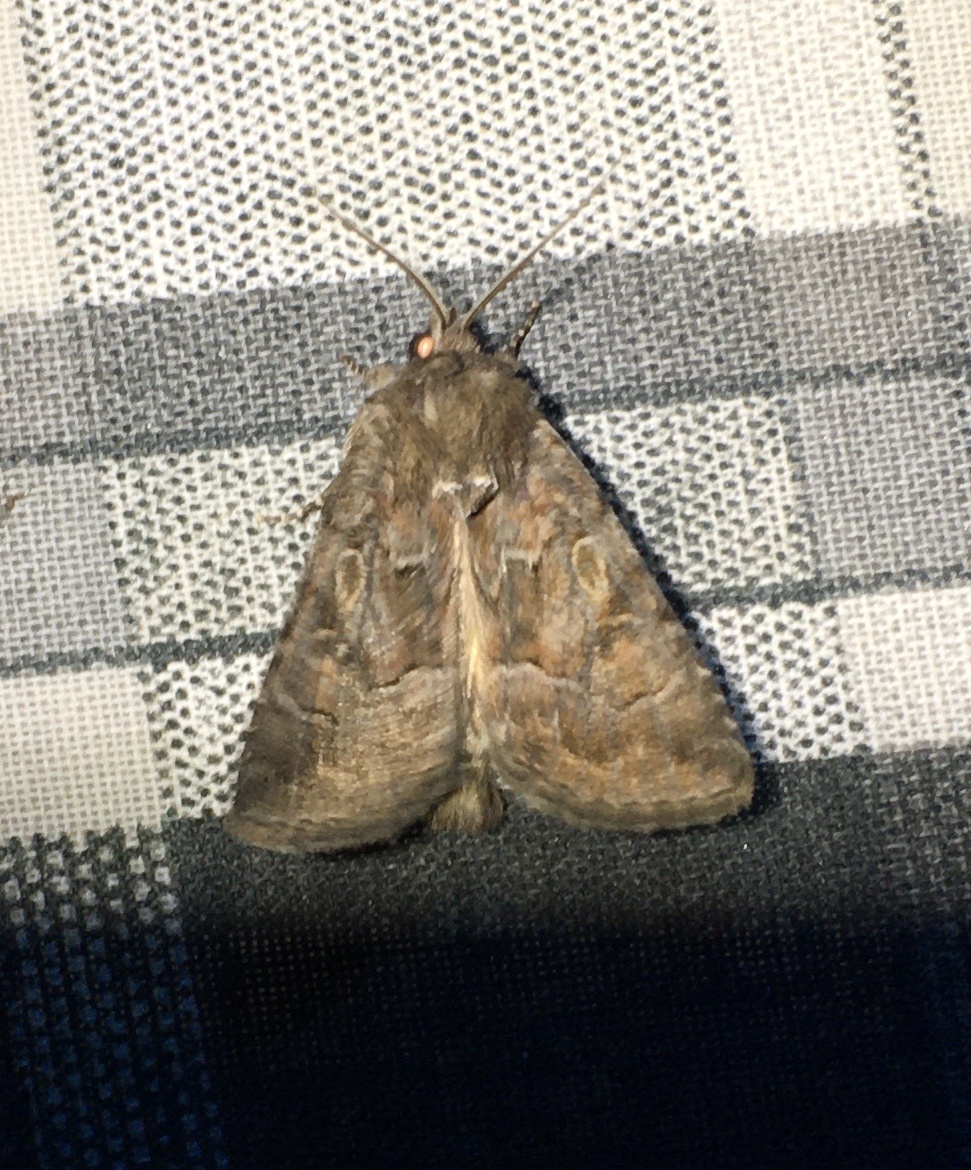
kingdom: Animalia
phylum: Arthropoda
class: Insecta
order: Lepidoptera
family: Noctuidae
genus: Thalpophila
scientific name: Thalpophila matura
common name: Straw underwing
